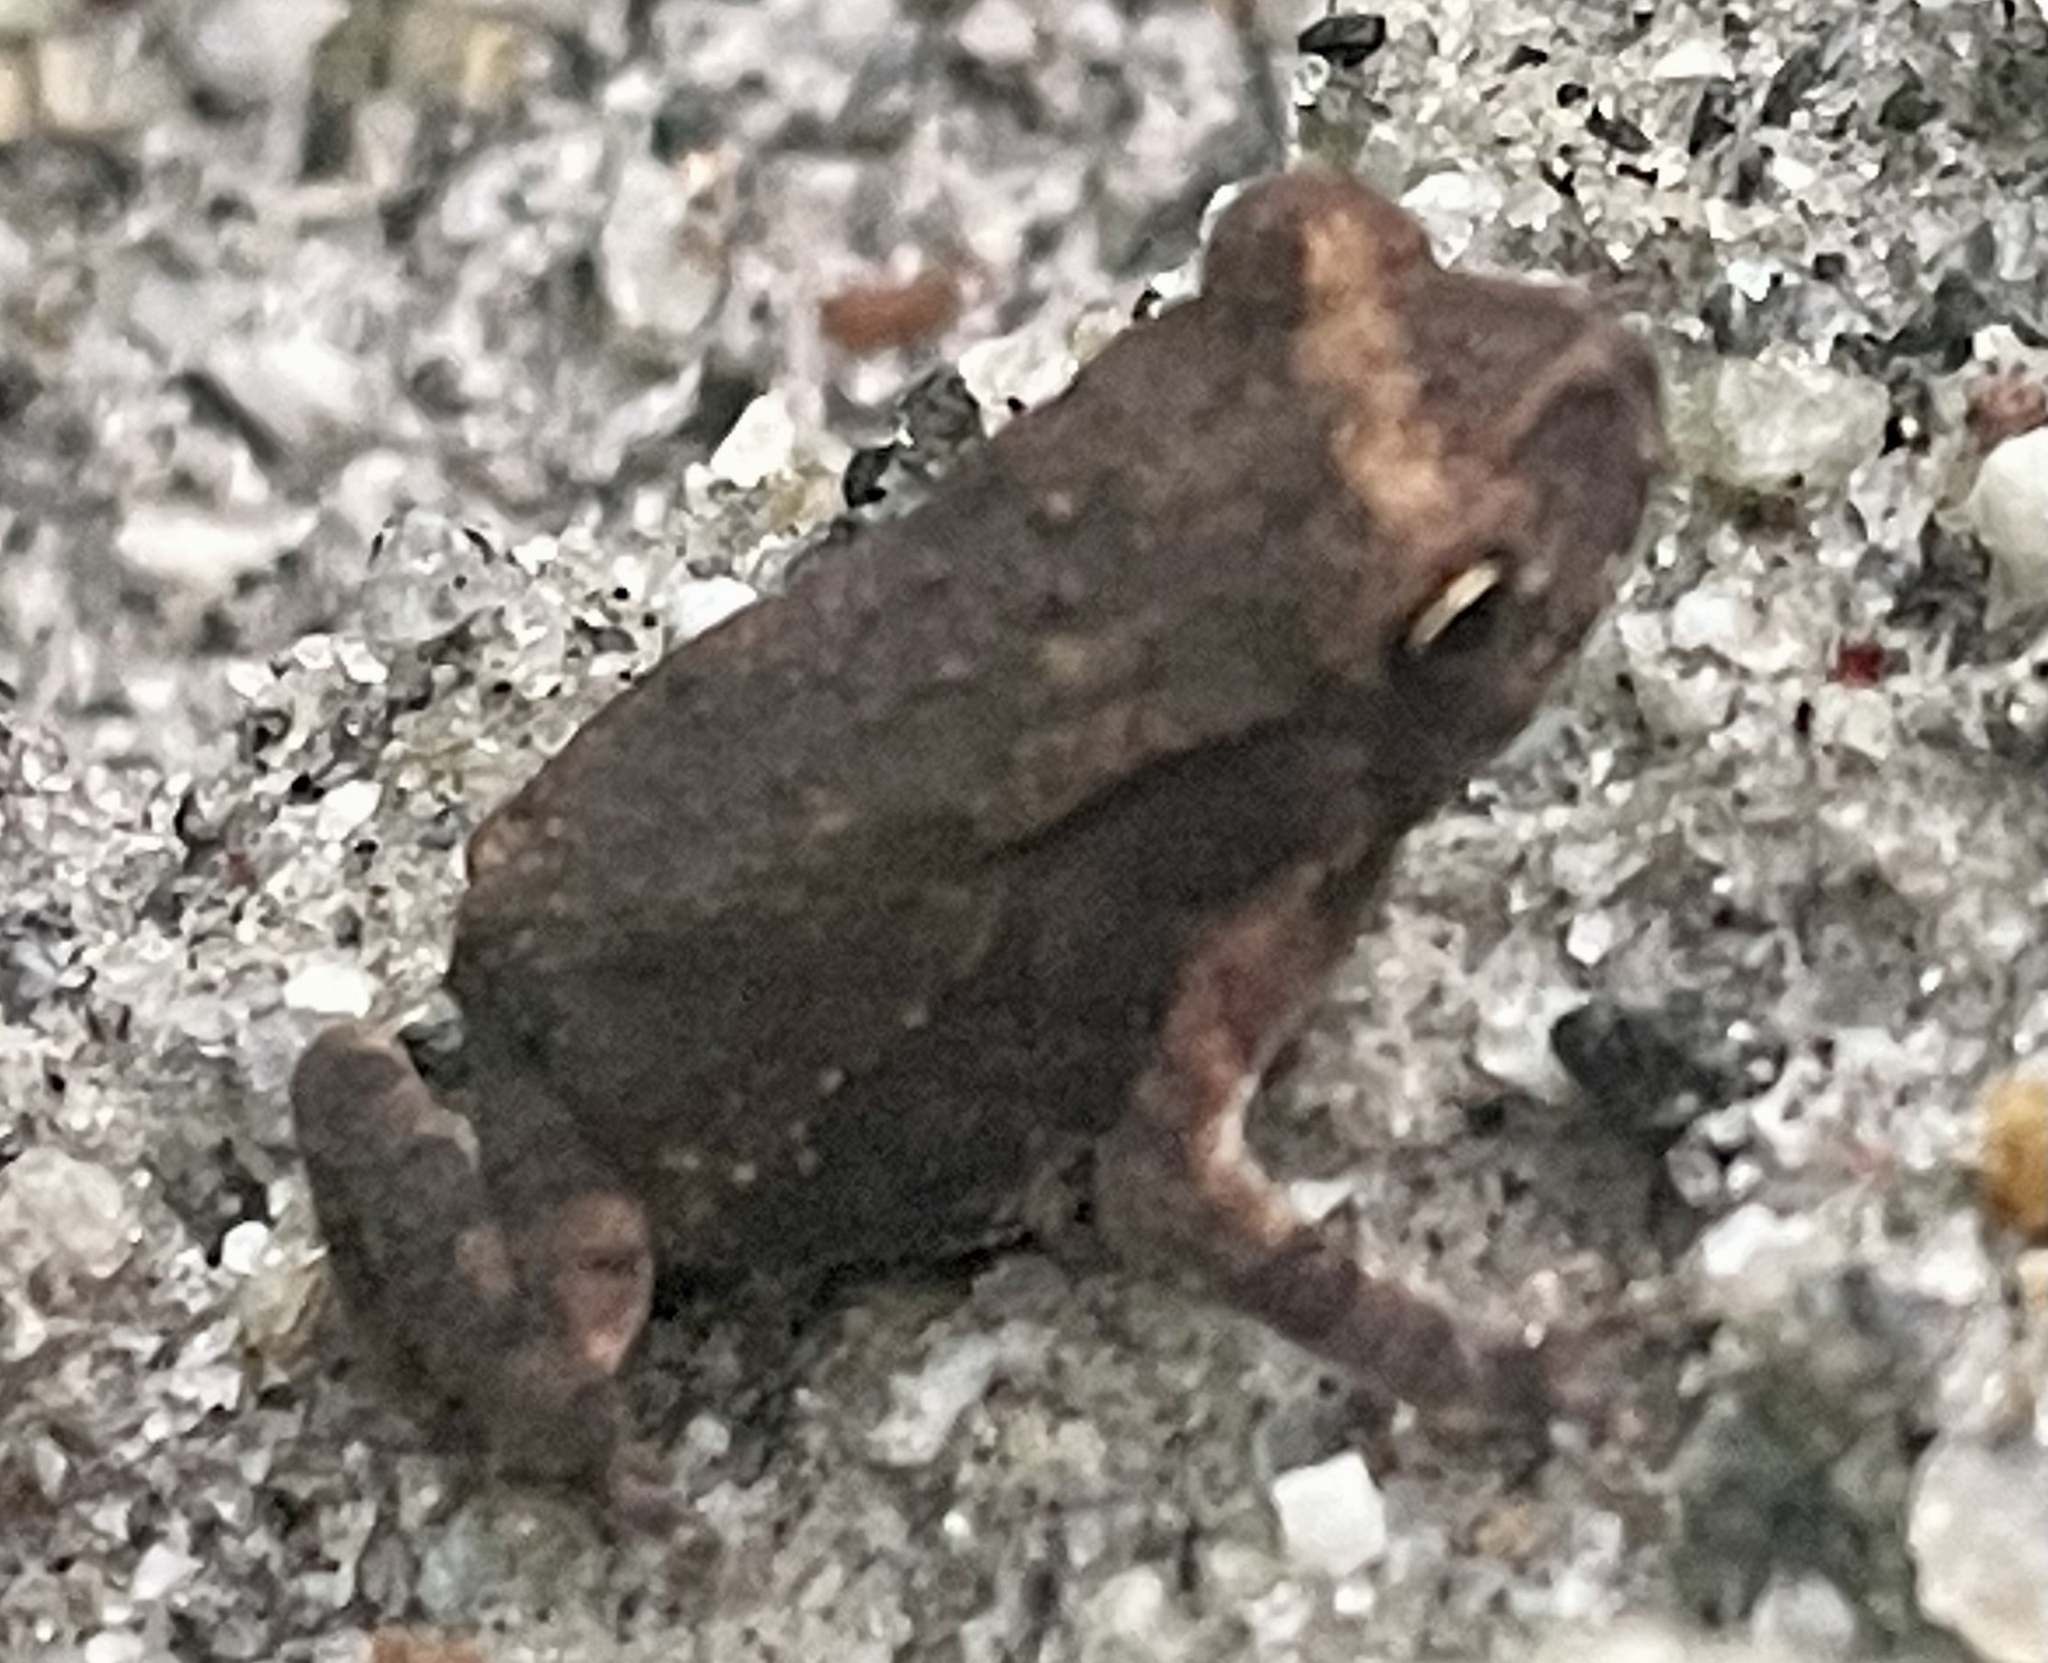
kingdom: Animalia
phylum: Chordata
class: Amphibia
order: Anura
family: Bufonidae
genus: Duttaphrynus
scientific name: Duttaphrynus melanostictus
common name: Common sunda toad
